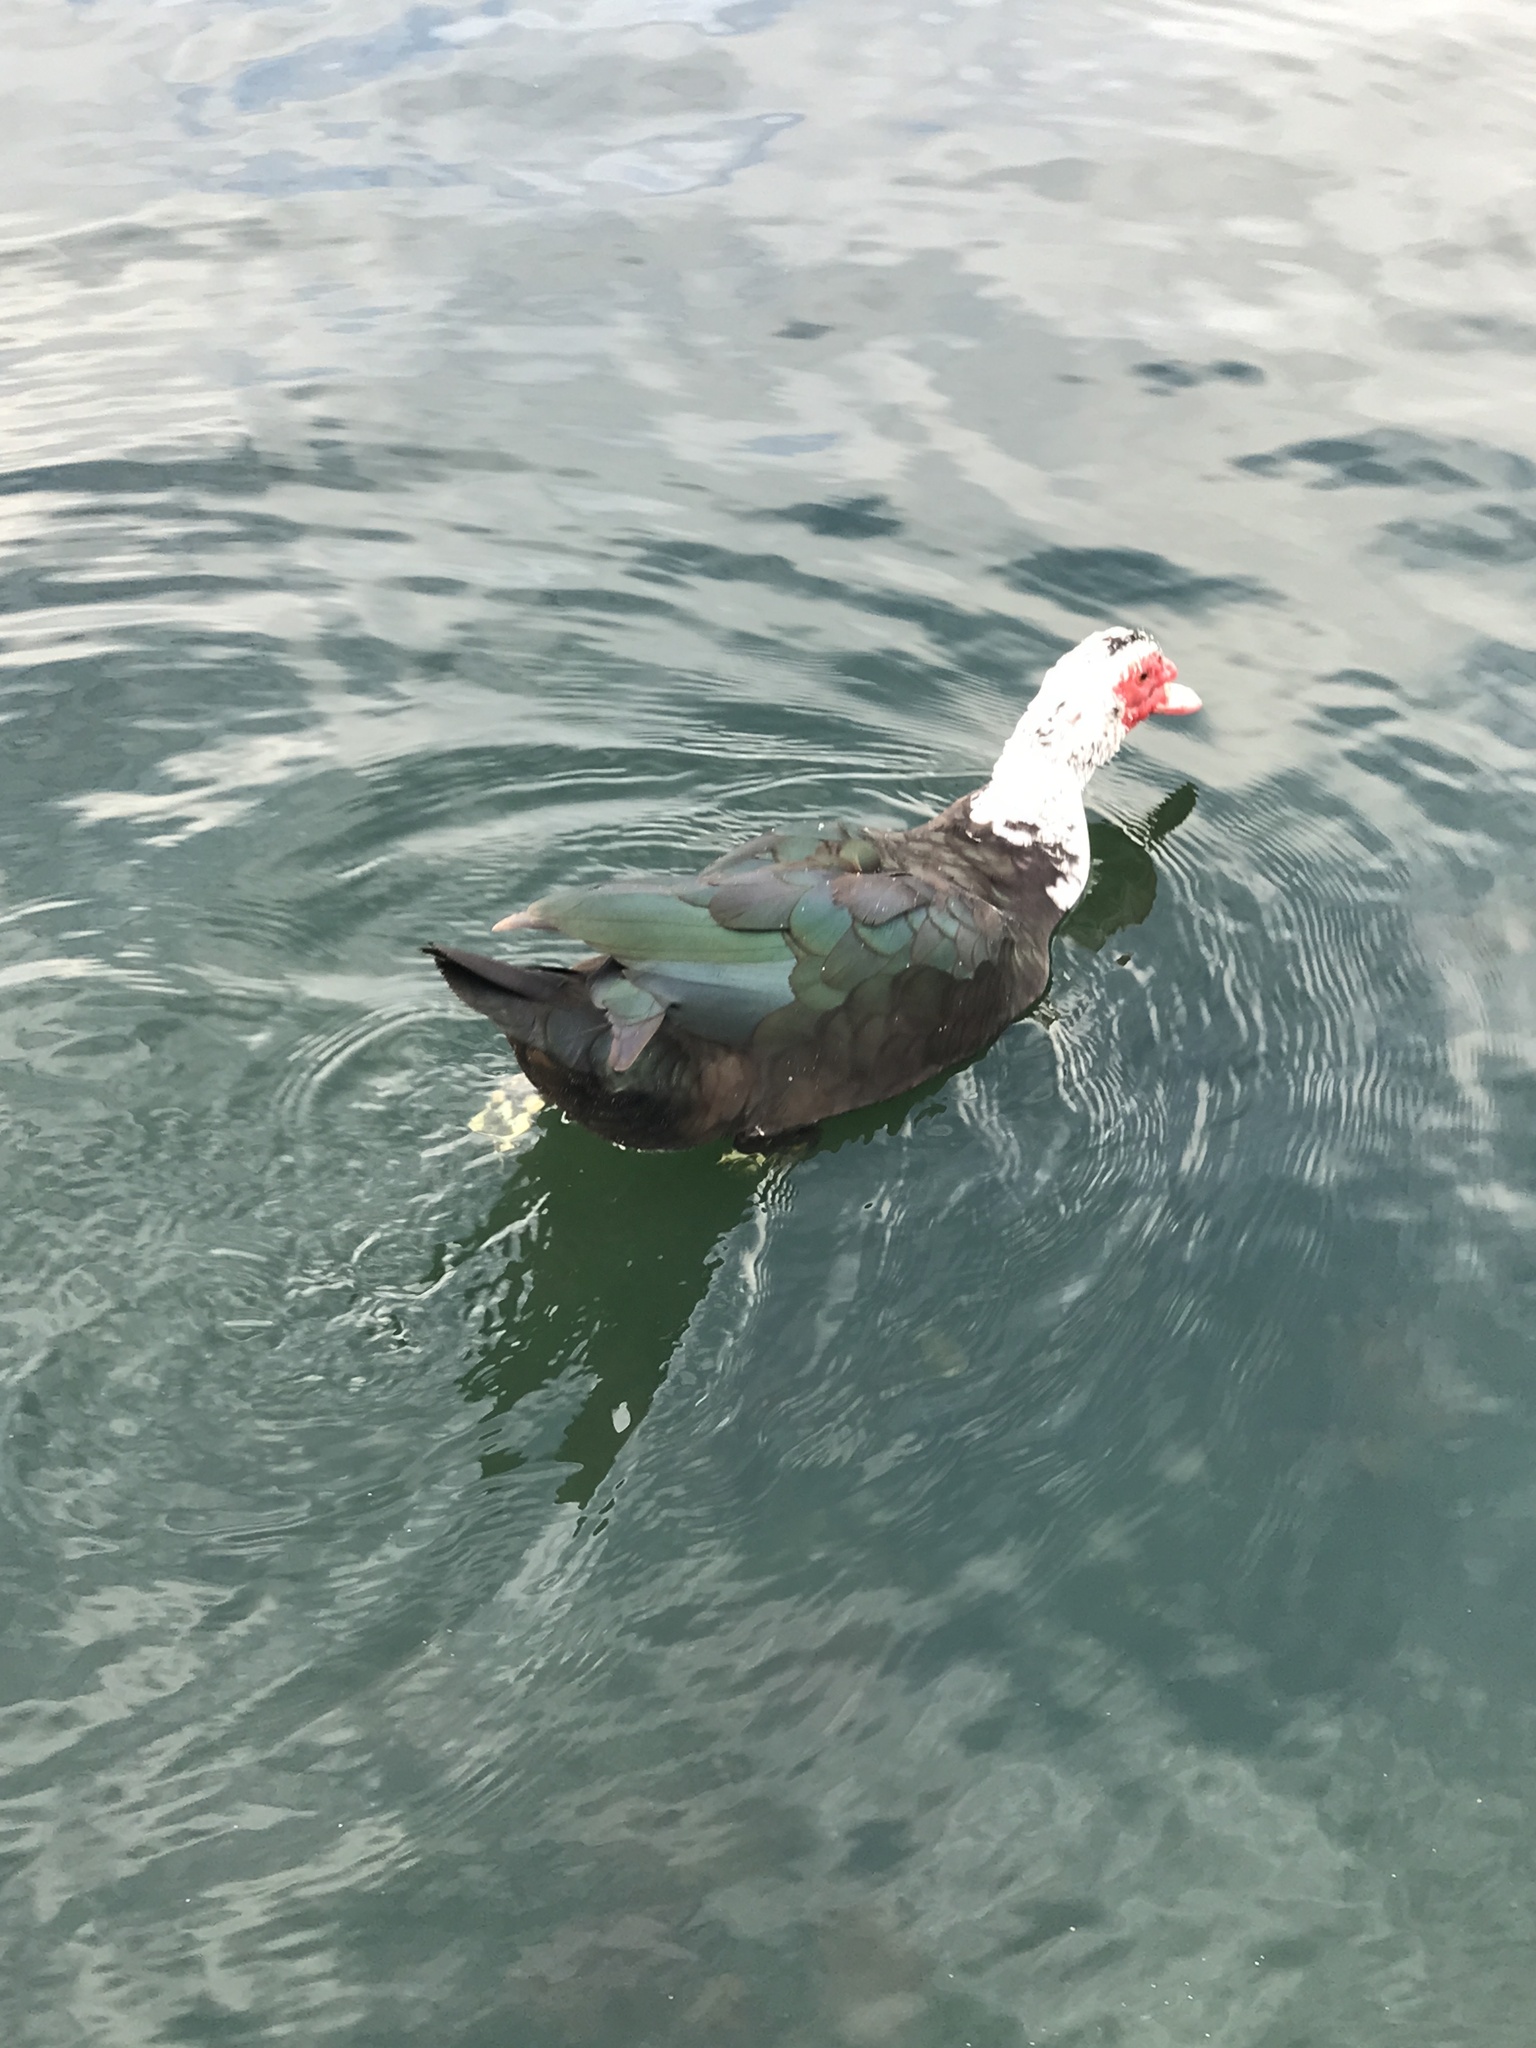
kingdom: Animalia
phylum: Chordata
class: Aves
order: Anseriformes
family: Anatidae
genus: Cairina
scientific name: Cairina moschata
